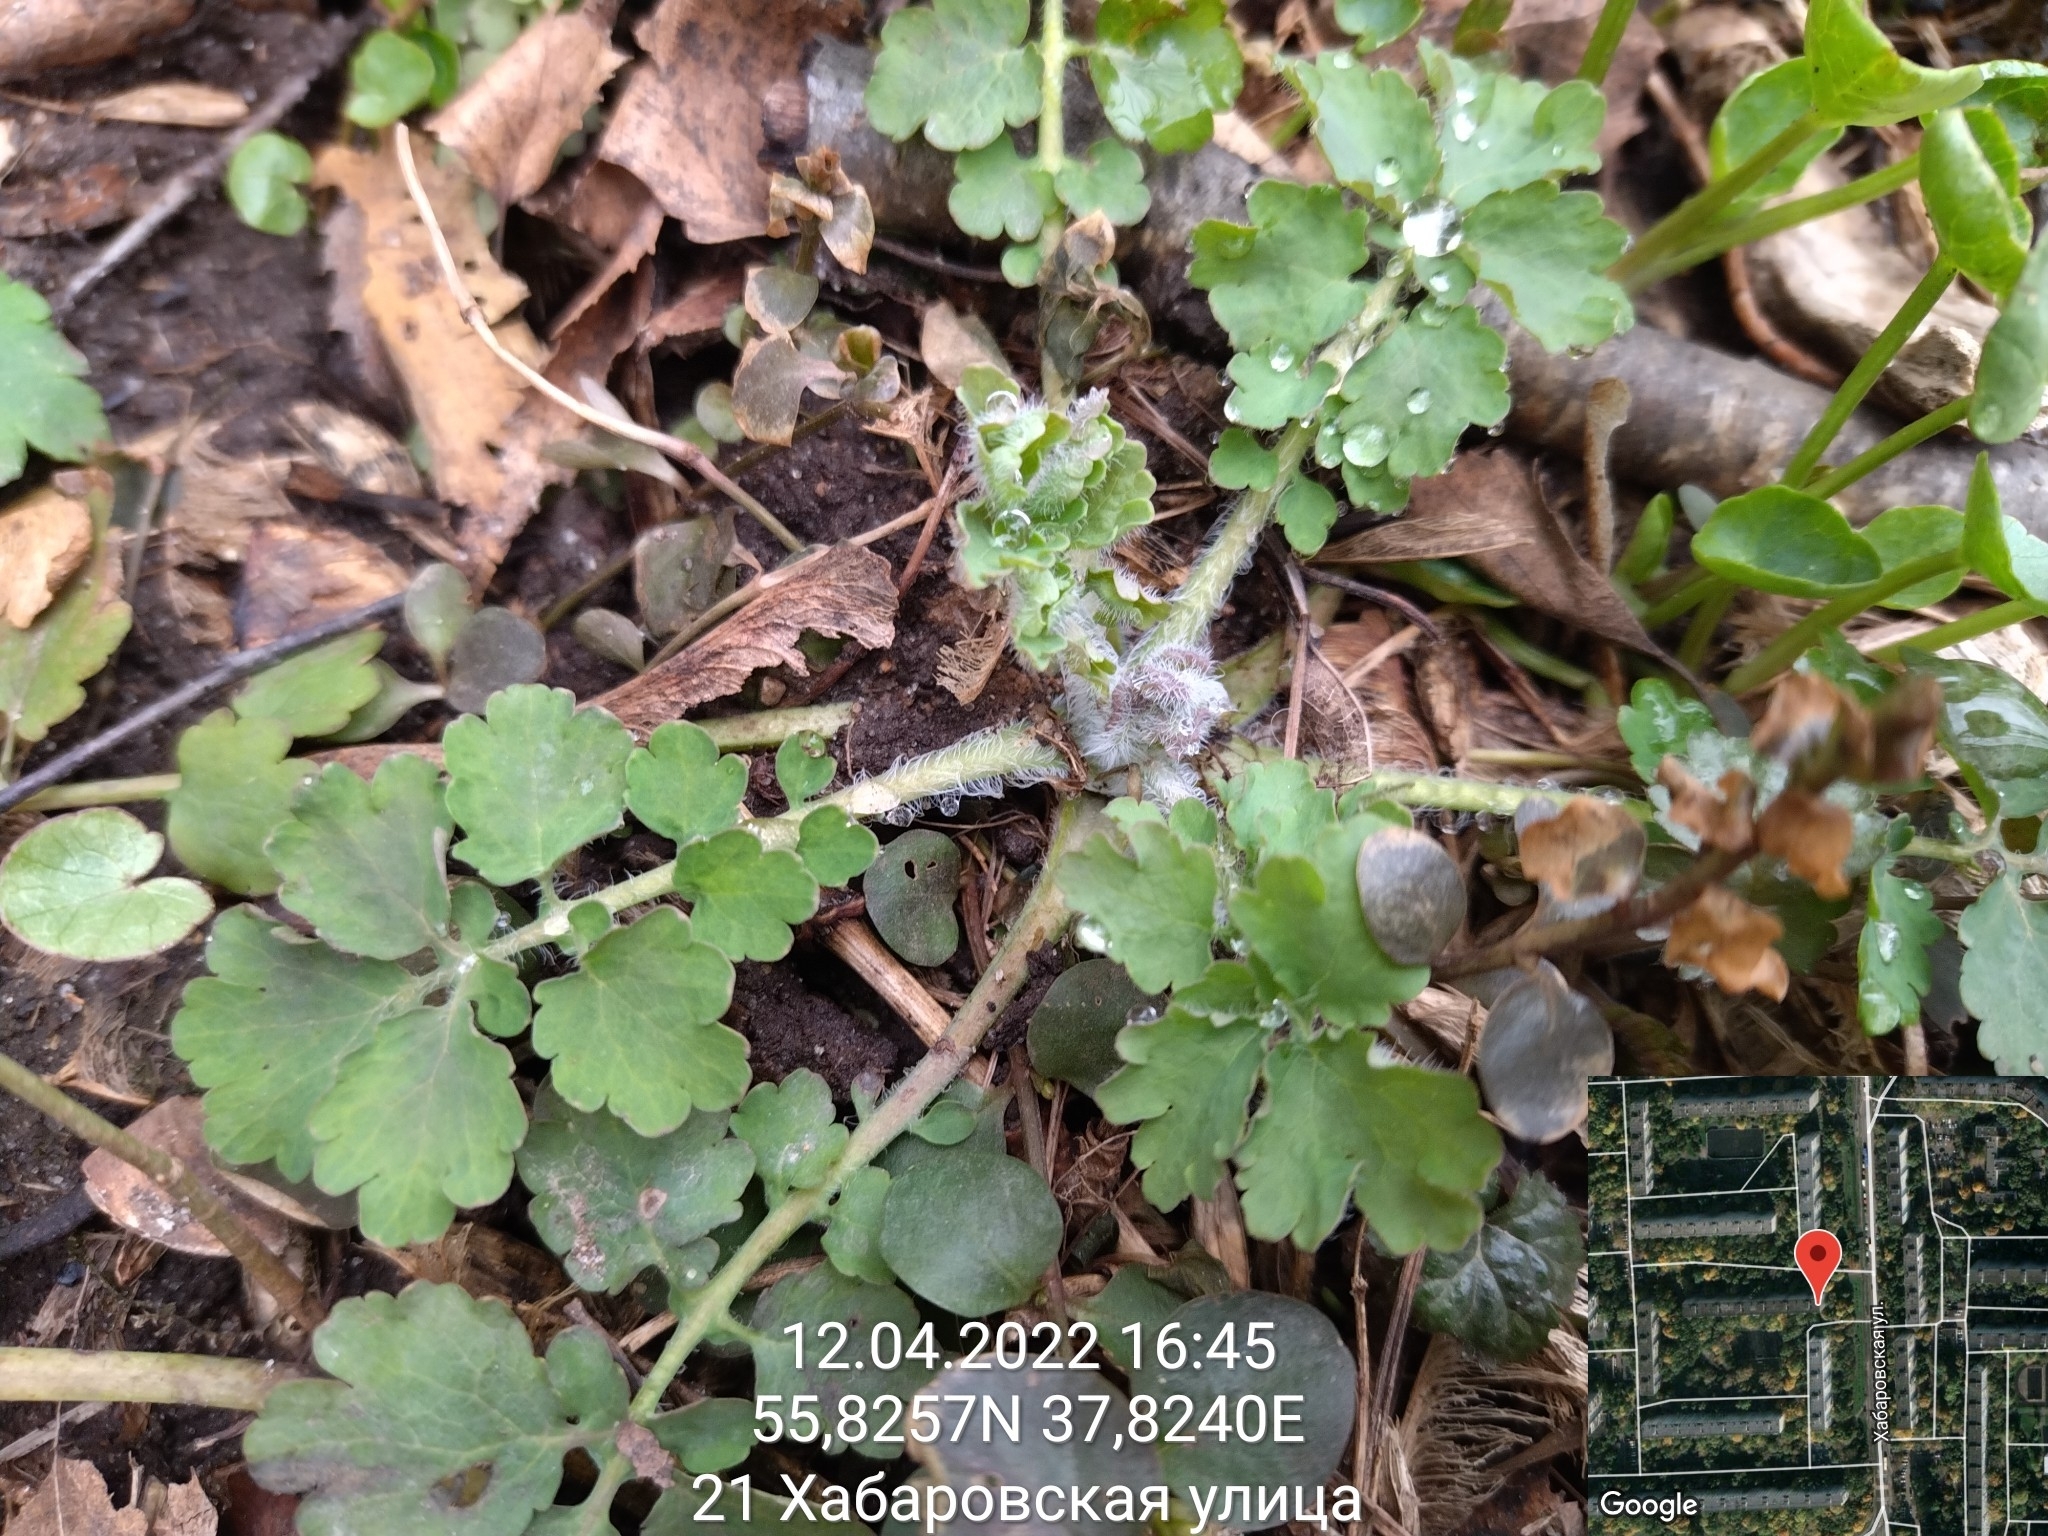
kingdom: Plantae
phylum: Tracheophyta
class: Magnoliopsida
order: Ranunculales
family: Papaveraceae
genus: Chelidonium
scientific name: Chelidonium majus
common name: Greater celandine
